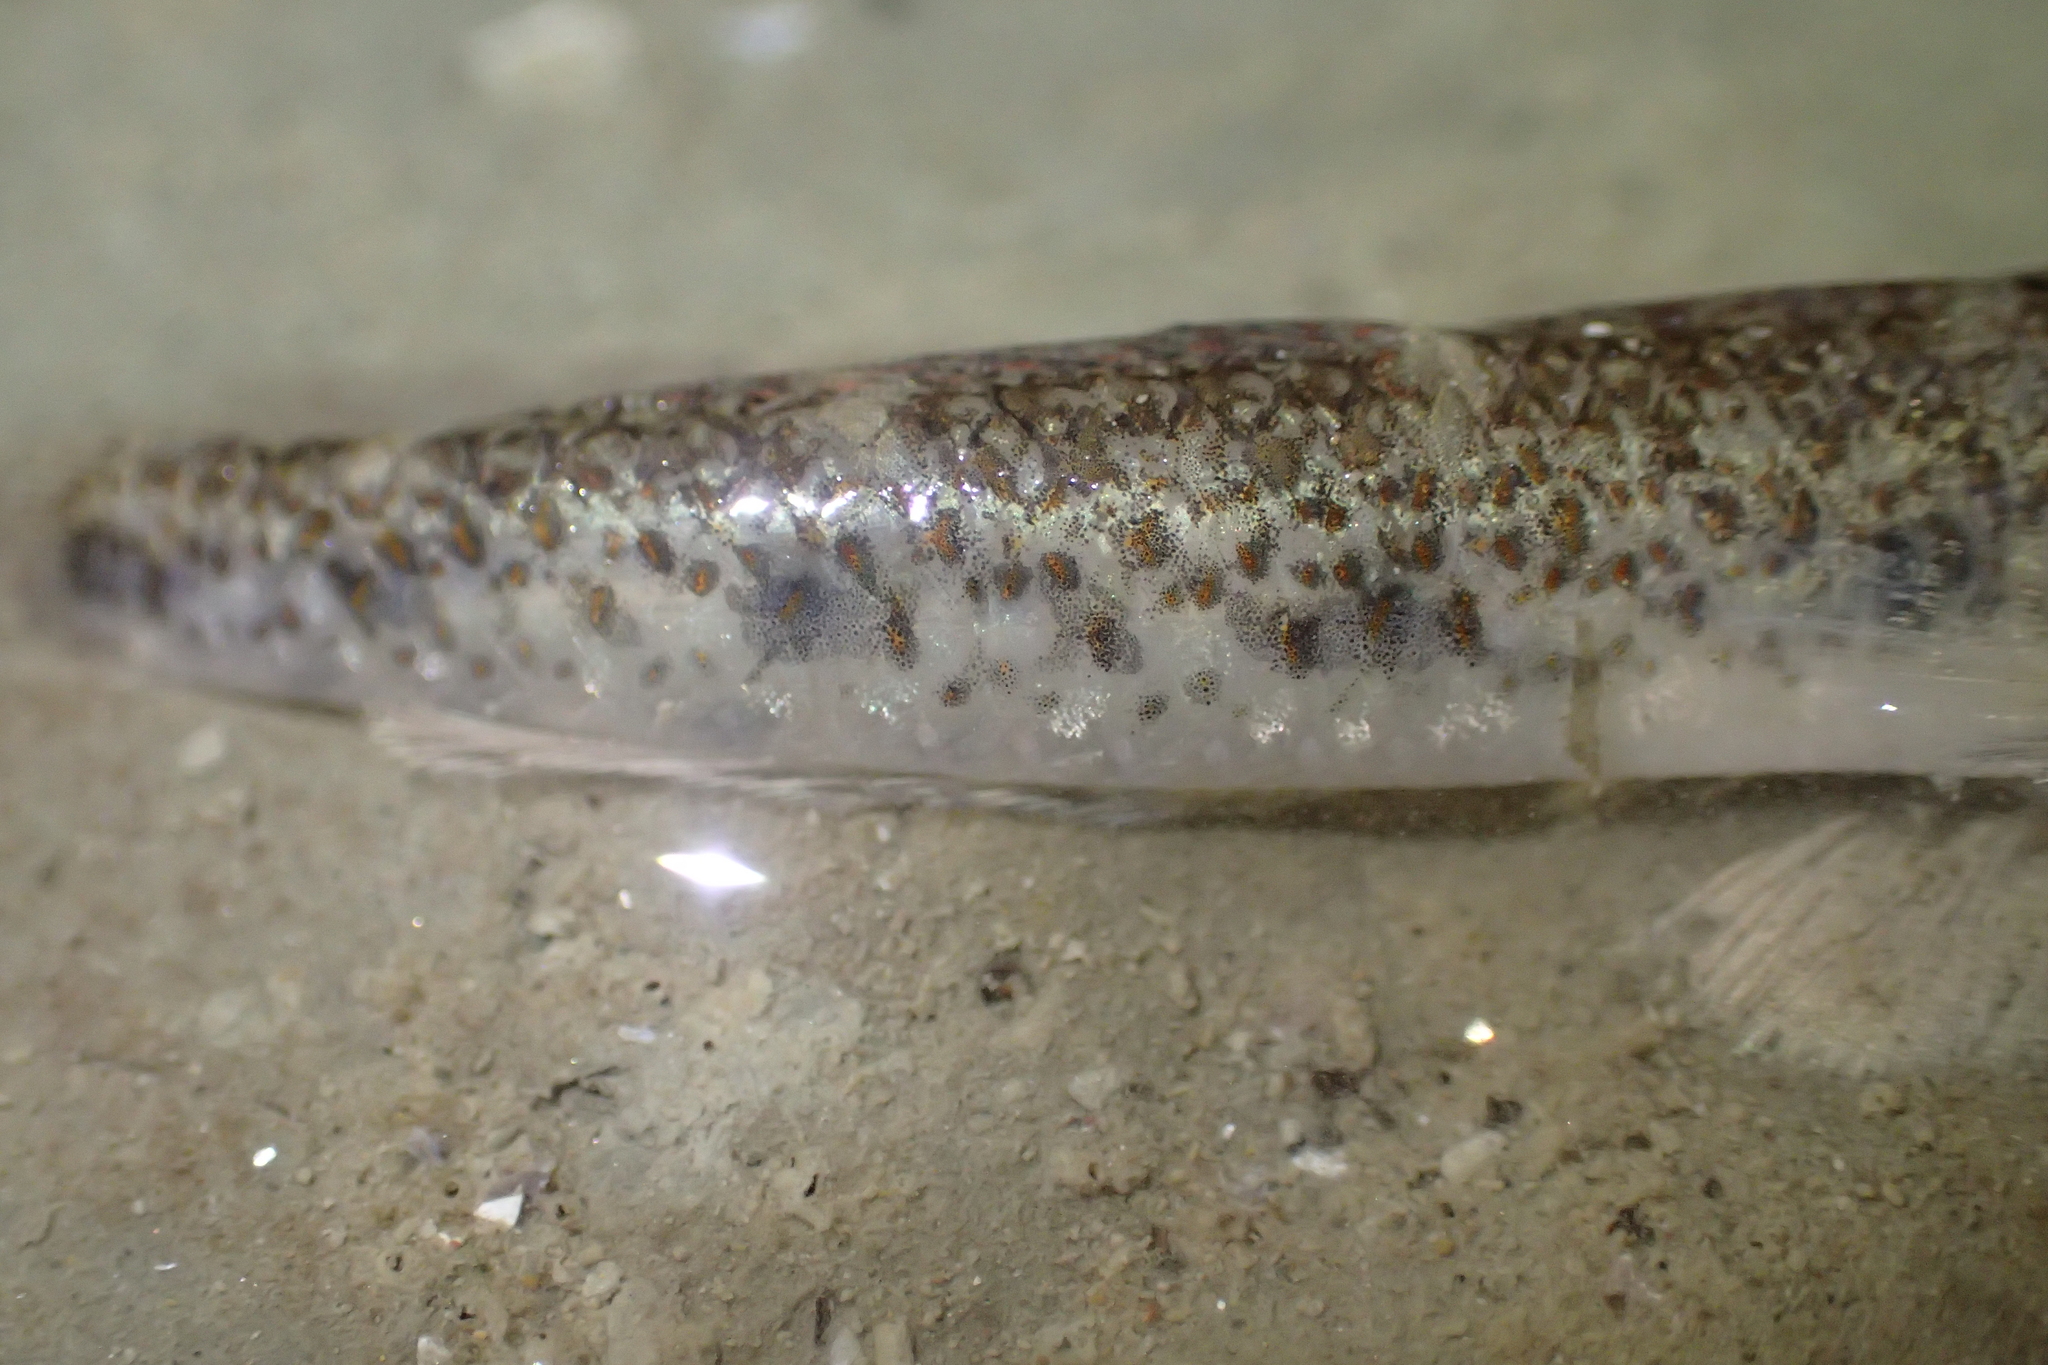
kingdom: Animalia
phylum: Chordata
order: Perciformes
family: Gobiidae
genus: Favonigobius
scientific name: Favonigobius exquisitus
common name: Exquisite sand-goby
